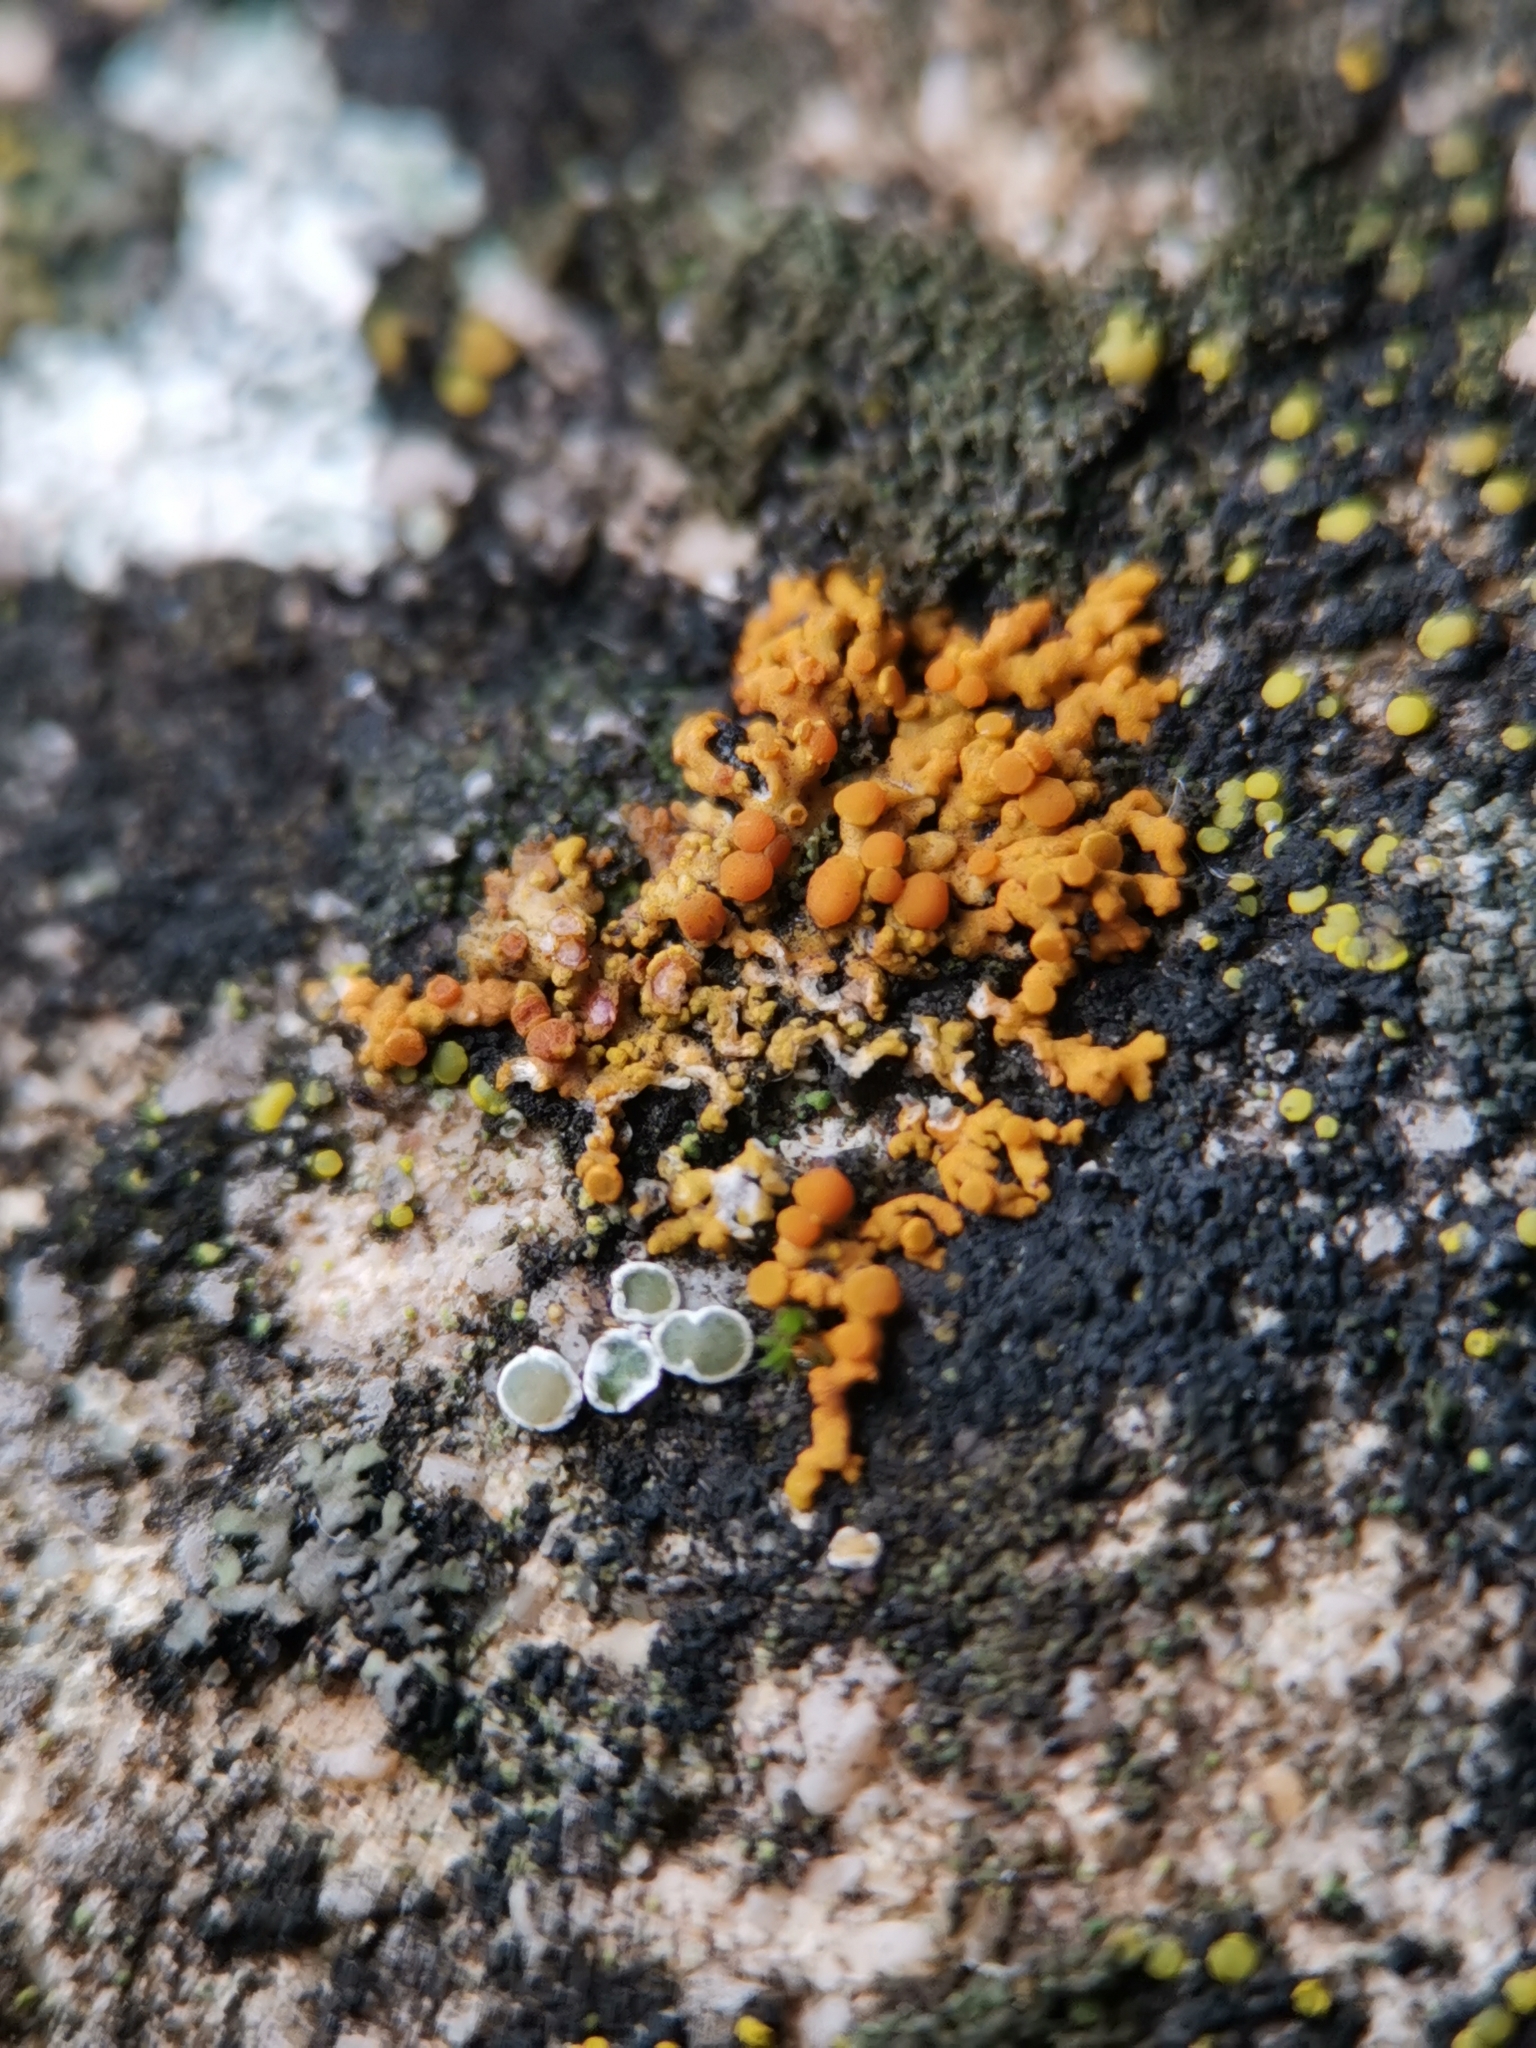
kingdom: Fungi
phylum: Ascomycota
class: Lecanoromycetes
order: Teloschistales
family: Teloschistaceae
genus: Xanthoria
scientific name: Xanthoria elegans
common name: Elegant sunburst lichen
